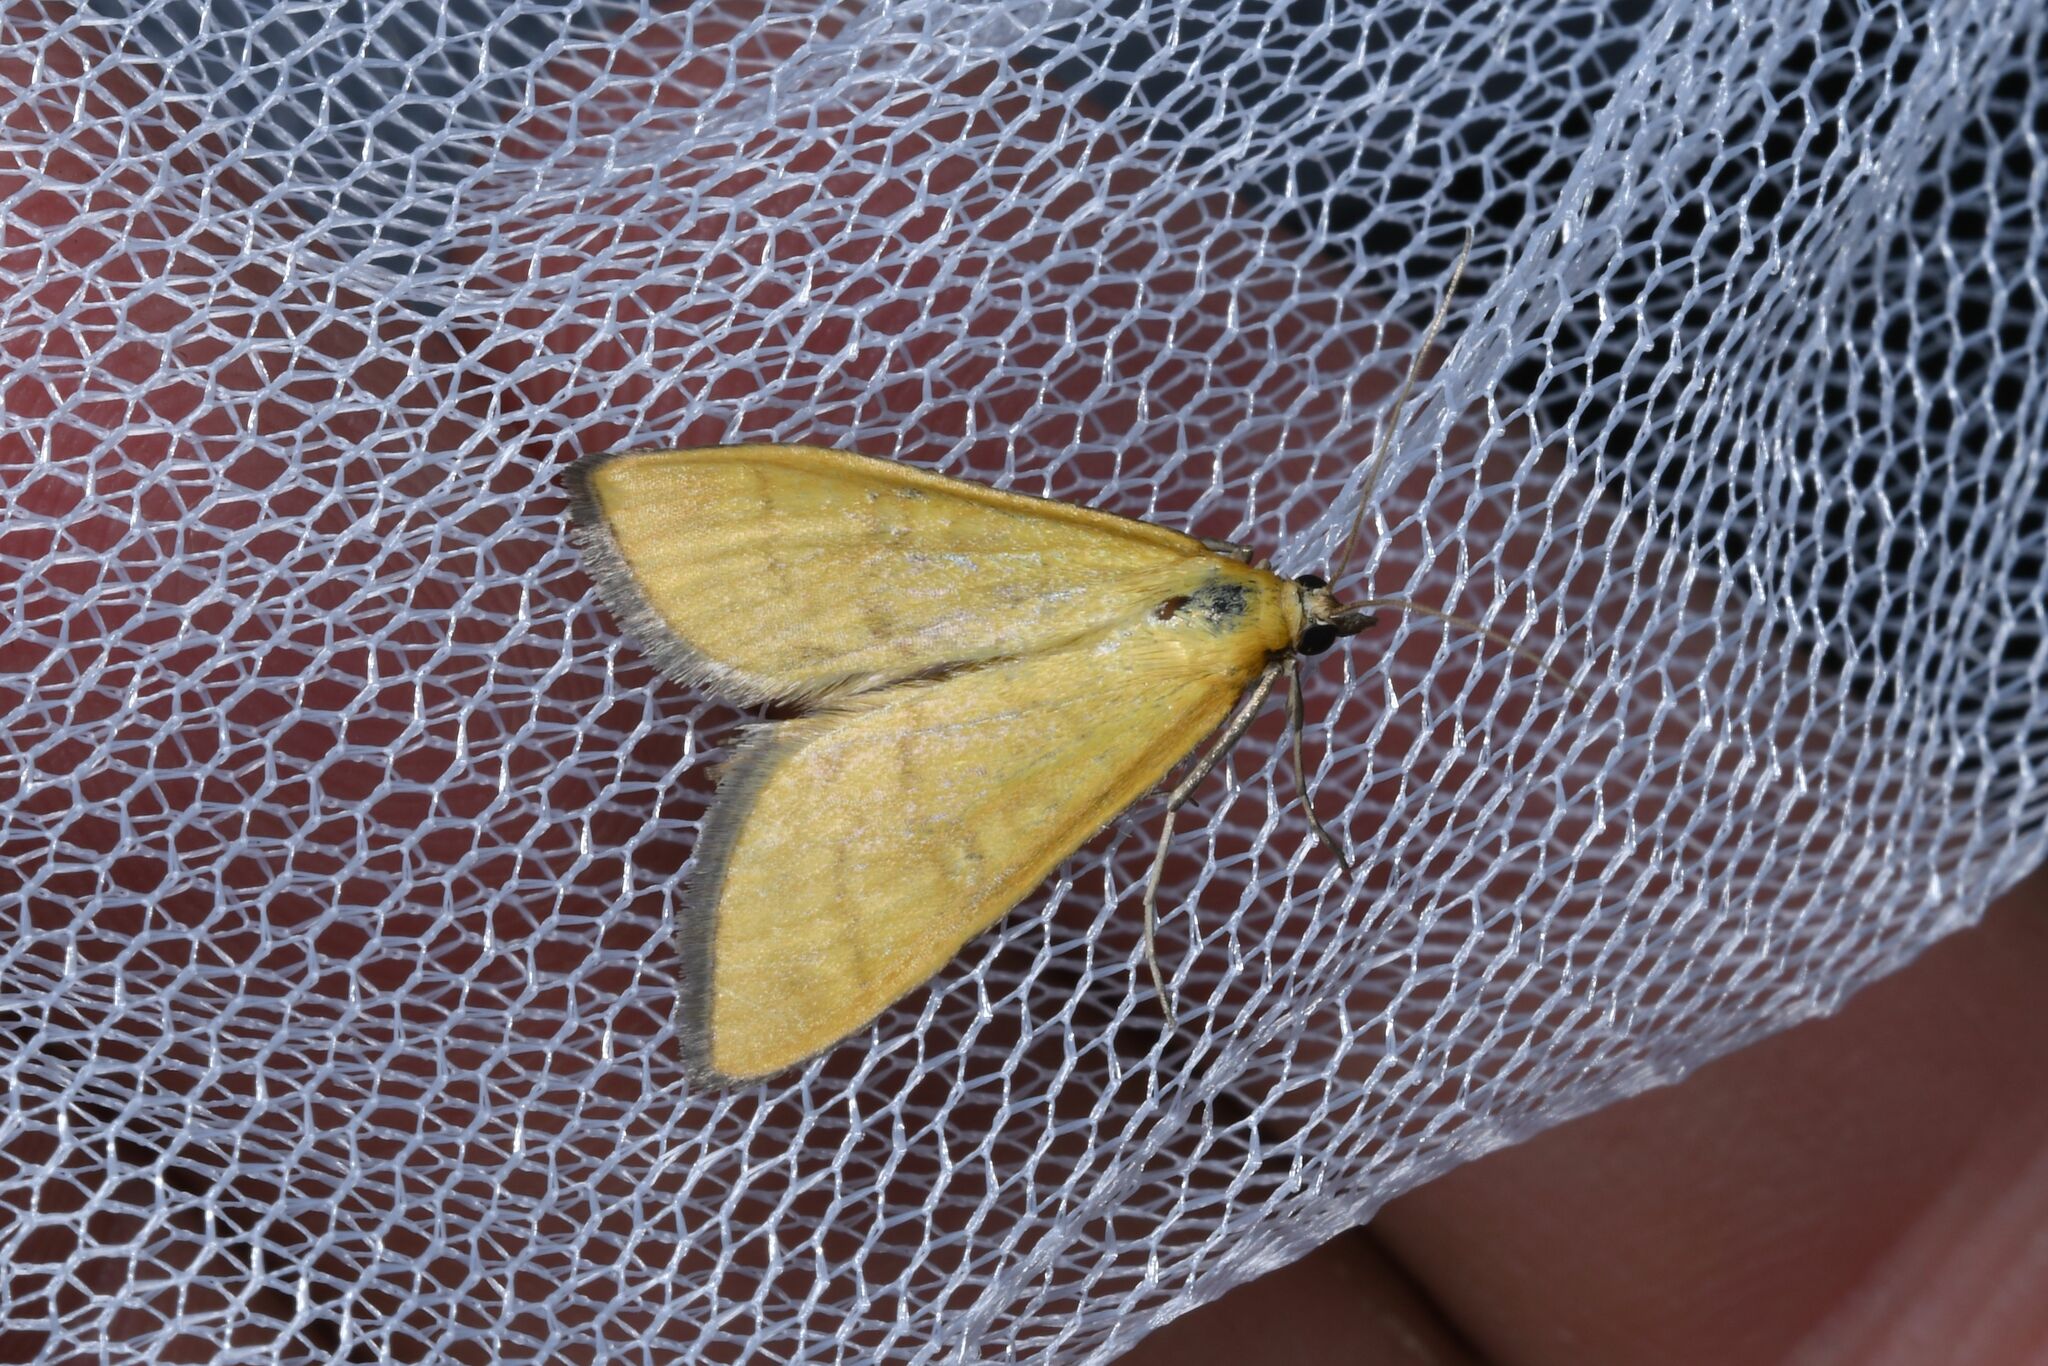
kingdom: Animalia
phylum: Arthropoda
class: Insecta
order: Lepidoptera
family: Crambidae
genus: Mecyna
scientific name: Mecyna flavalis
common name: Yellow pearl
